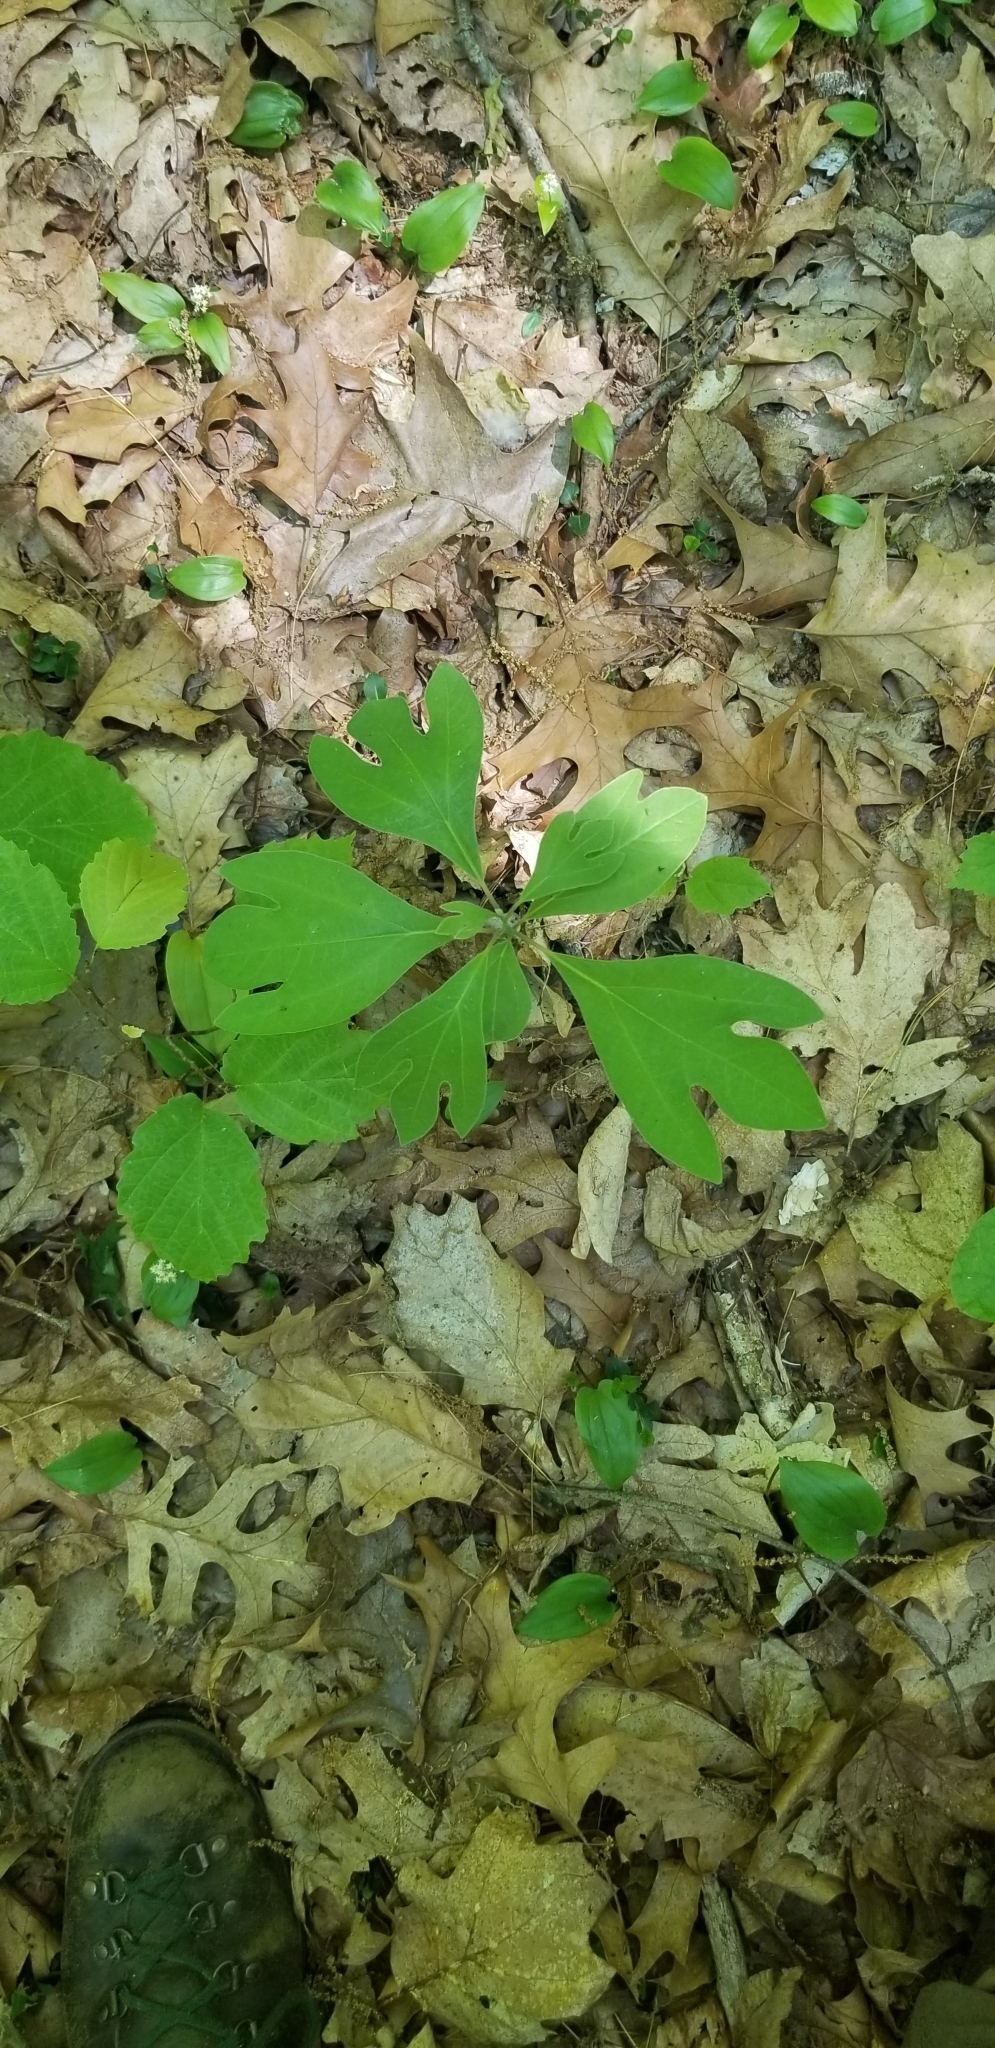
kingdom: Plantae
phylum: Tracheophyta
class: Magnoliopsida
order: Laurales
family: Lauraceae
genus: Sassafras
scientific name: Sassafras albidum
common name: Sassafras
